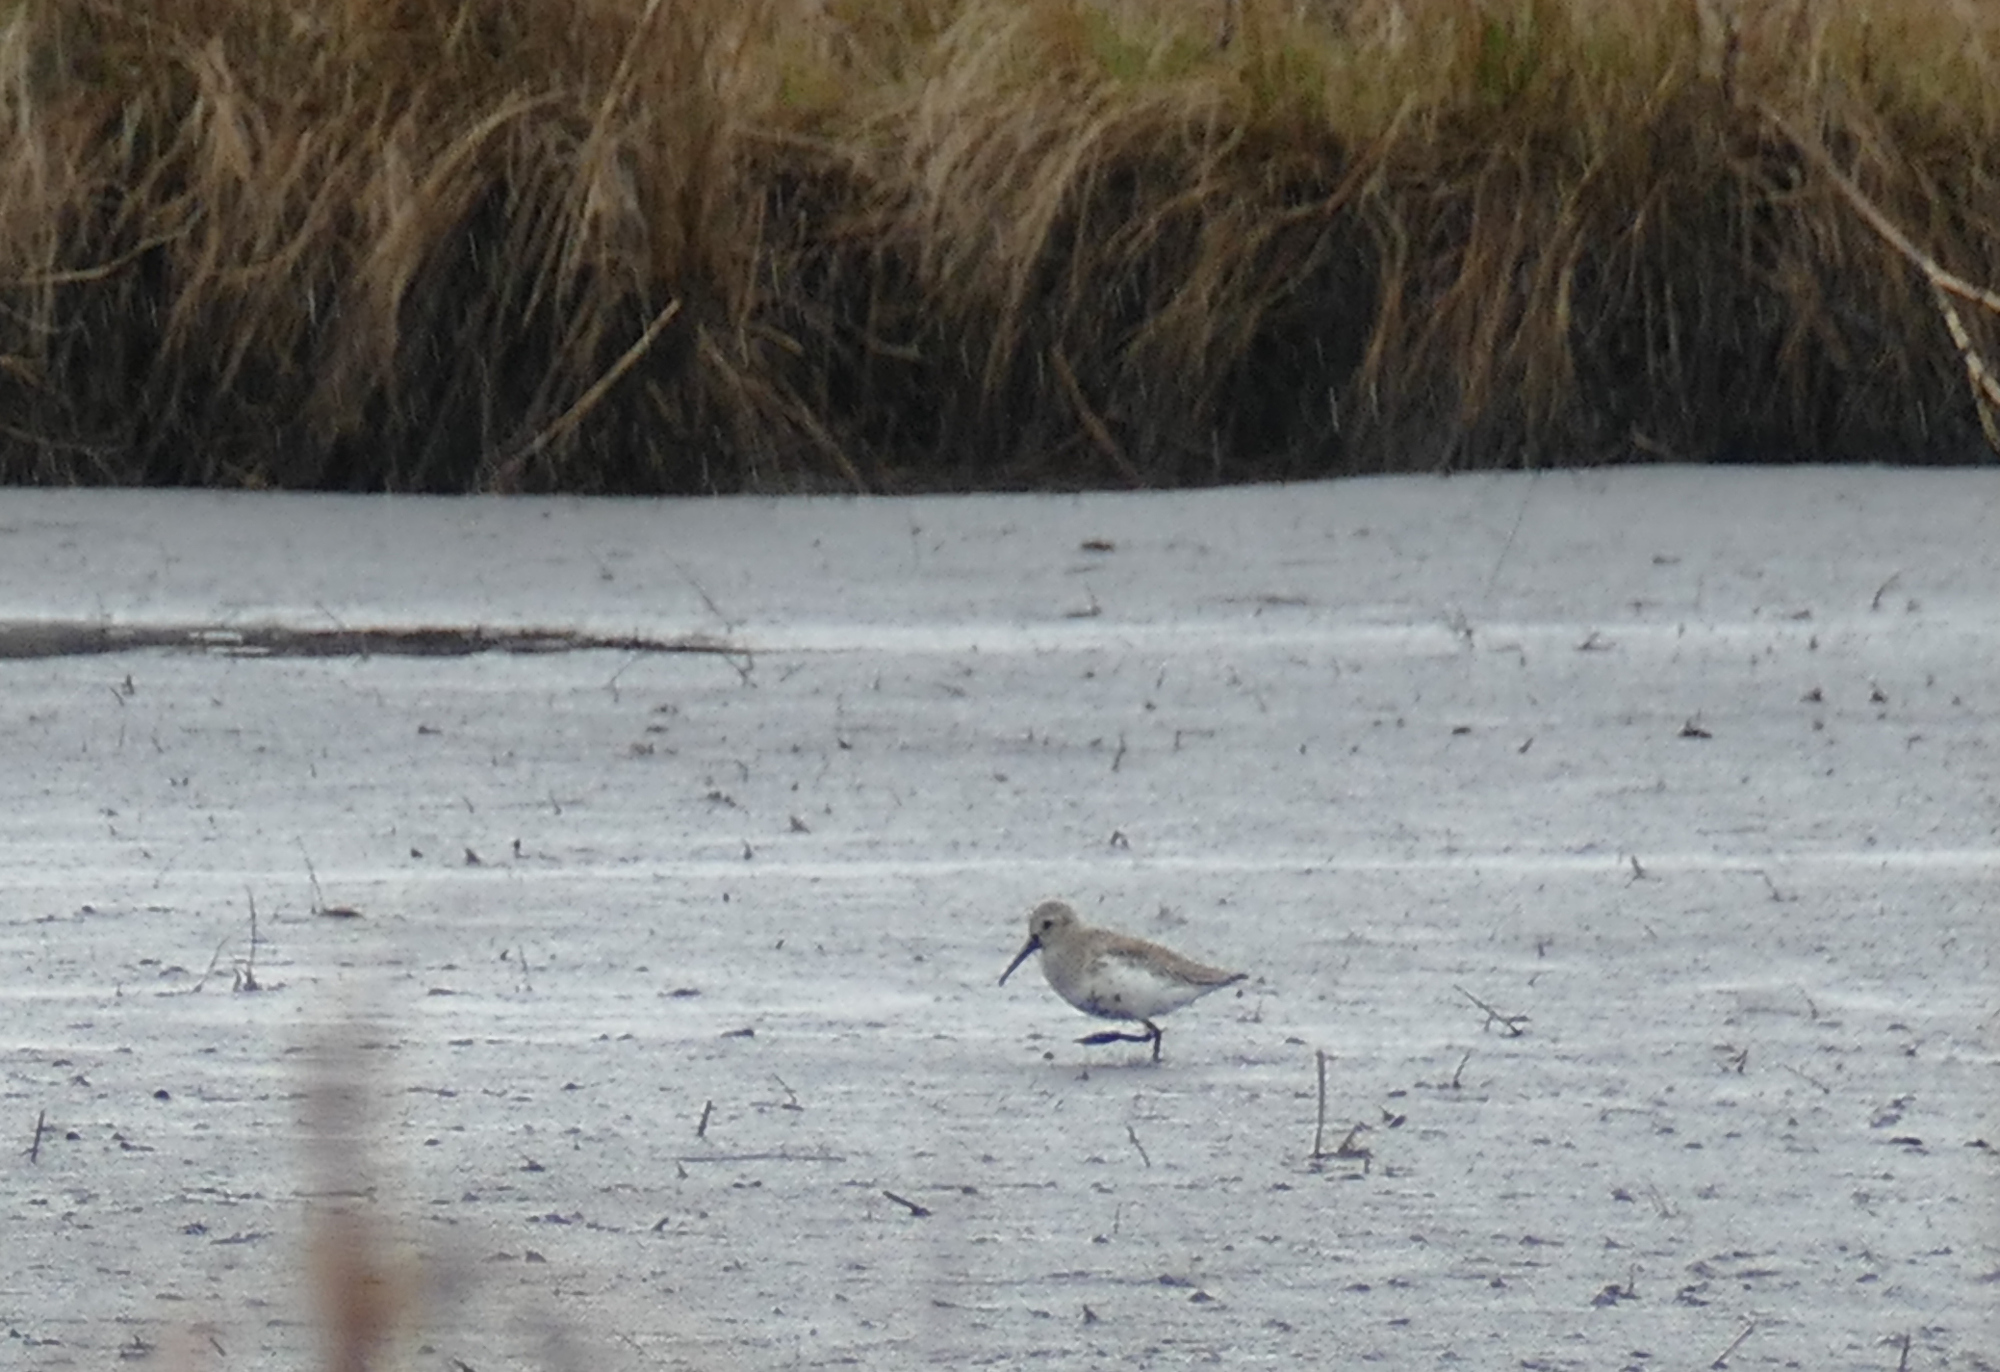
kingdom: Animalia
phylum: Chordata
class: Aves
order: Charadriiformes
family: Scolopacidae
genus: Calidris
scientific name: Calidris alpina
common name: Dunlin
